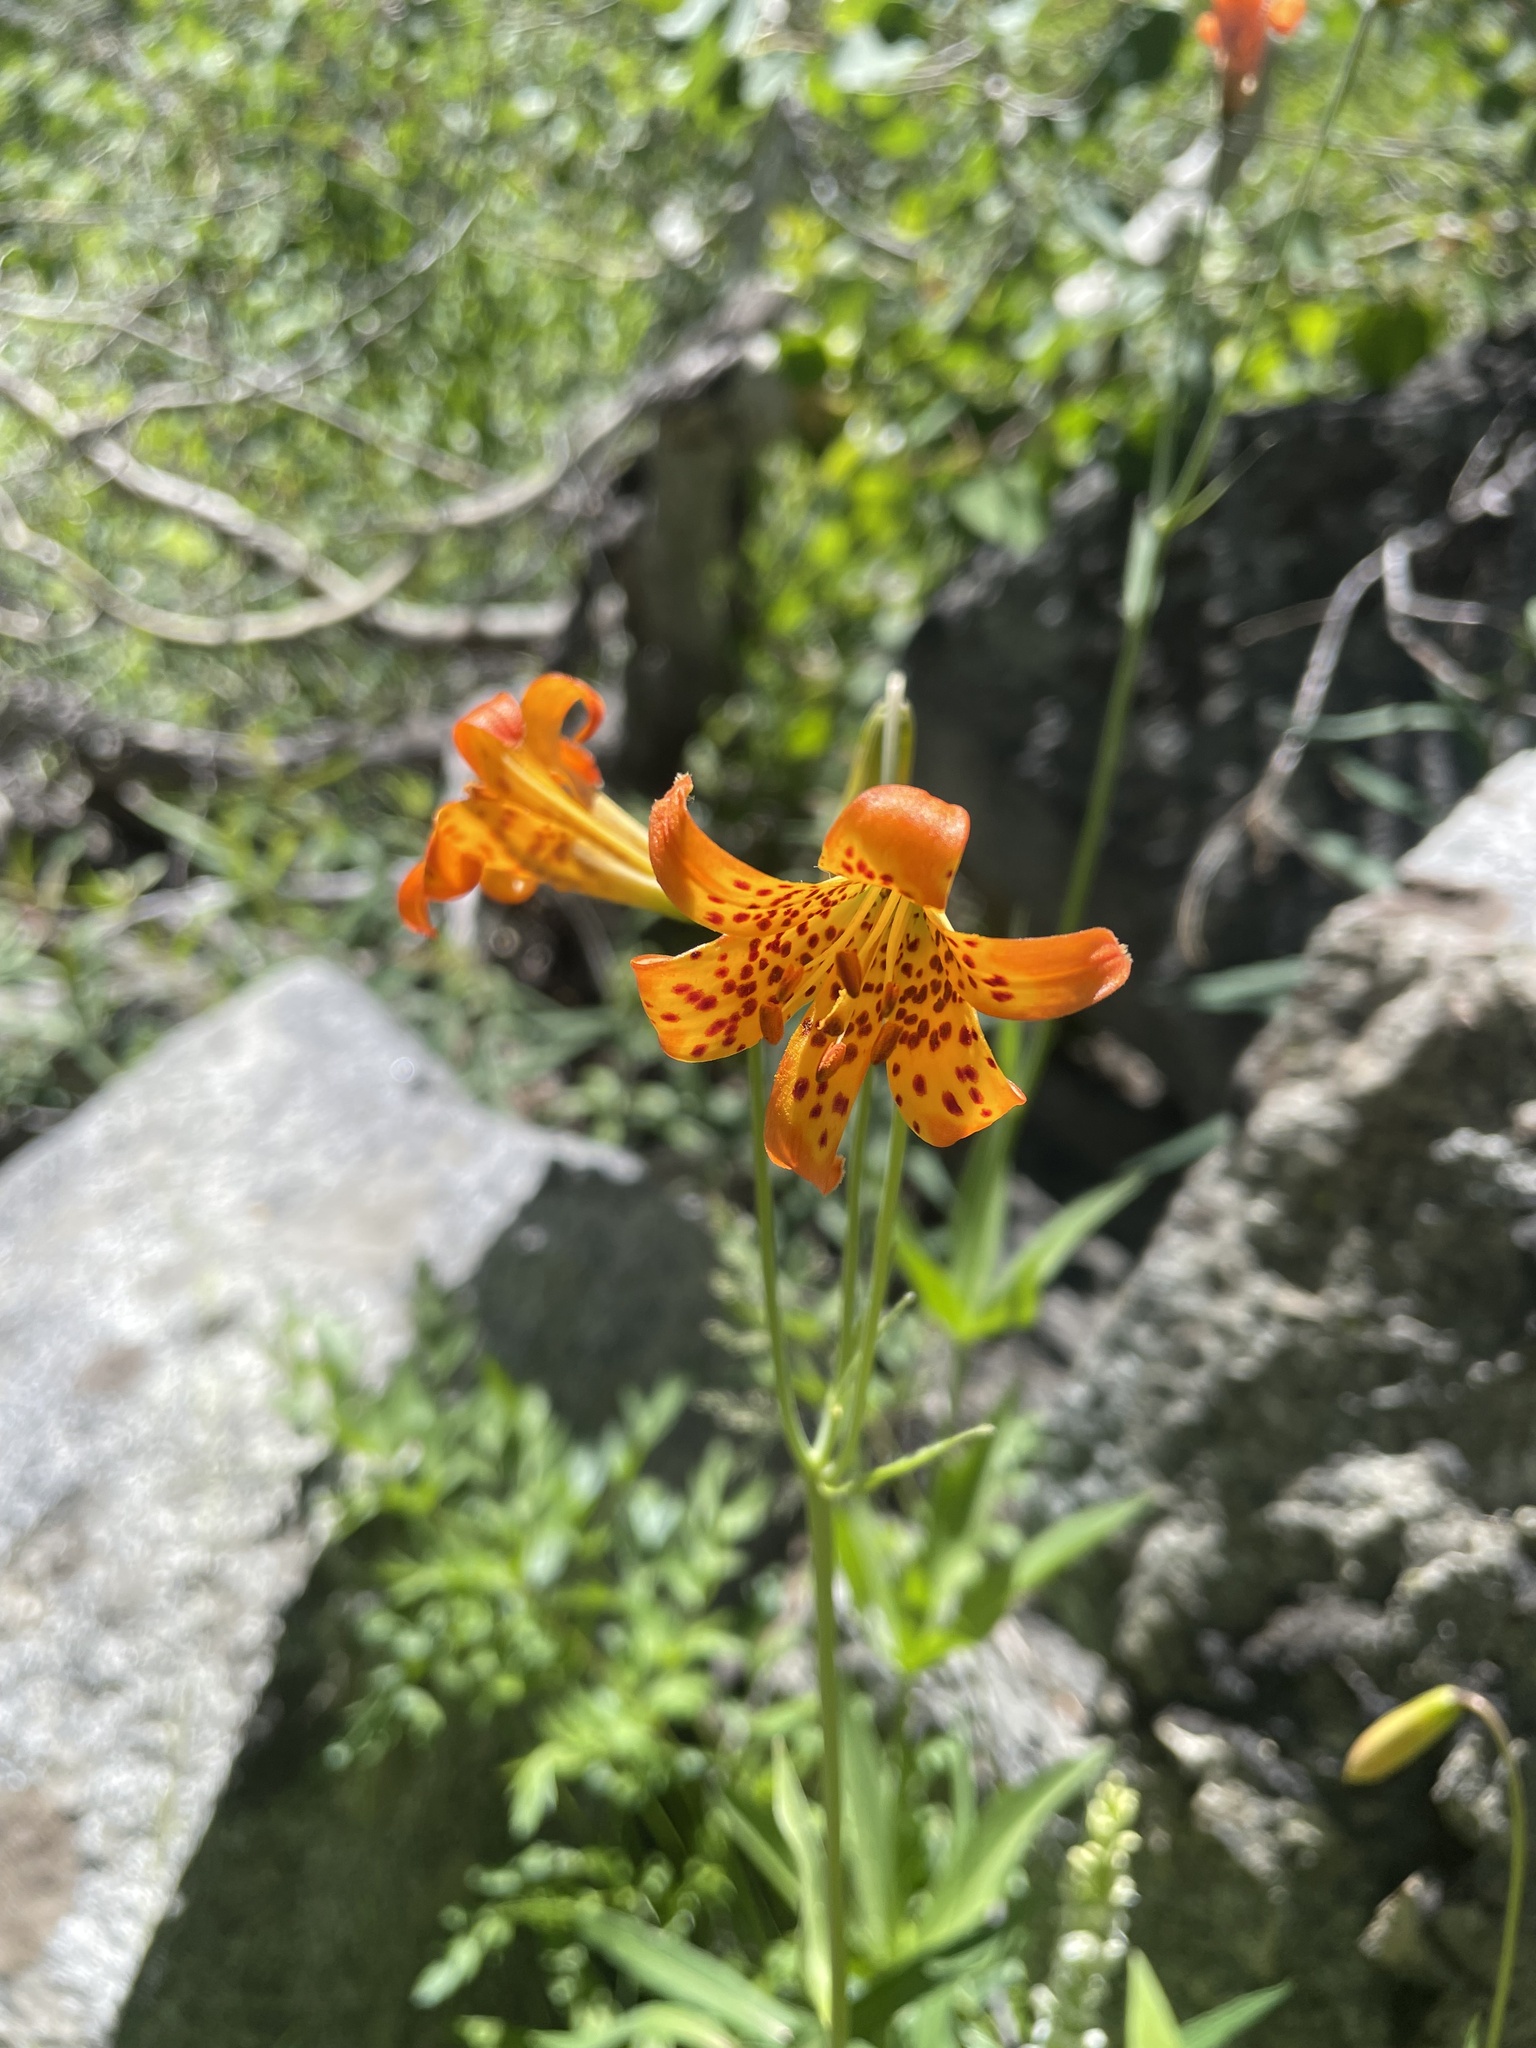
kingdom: Plantae
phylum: Tracheophyta
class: Liliopsida
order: Liliales
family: Liliaceae
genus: Lilium
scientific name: Lilium parvum
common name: Alpine lily
